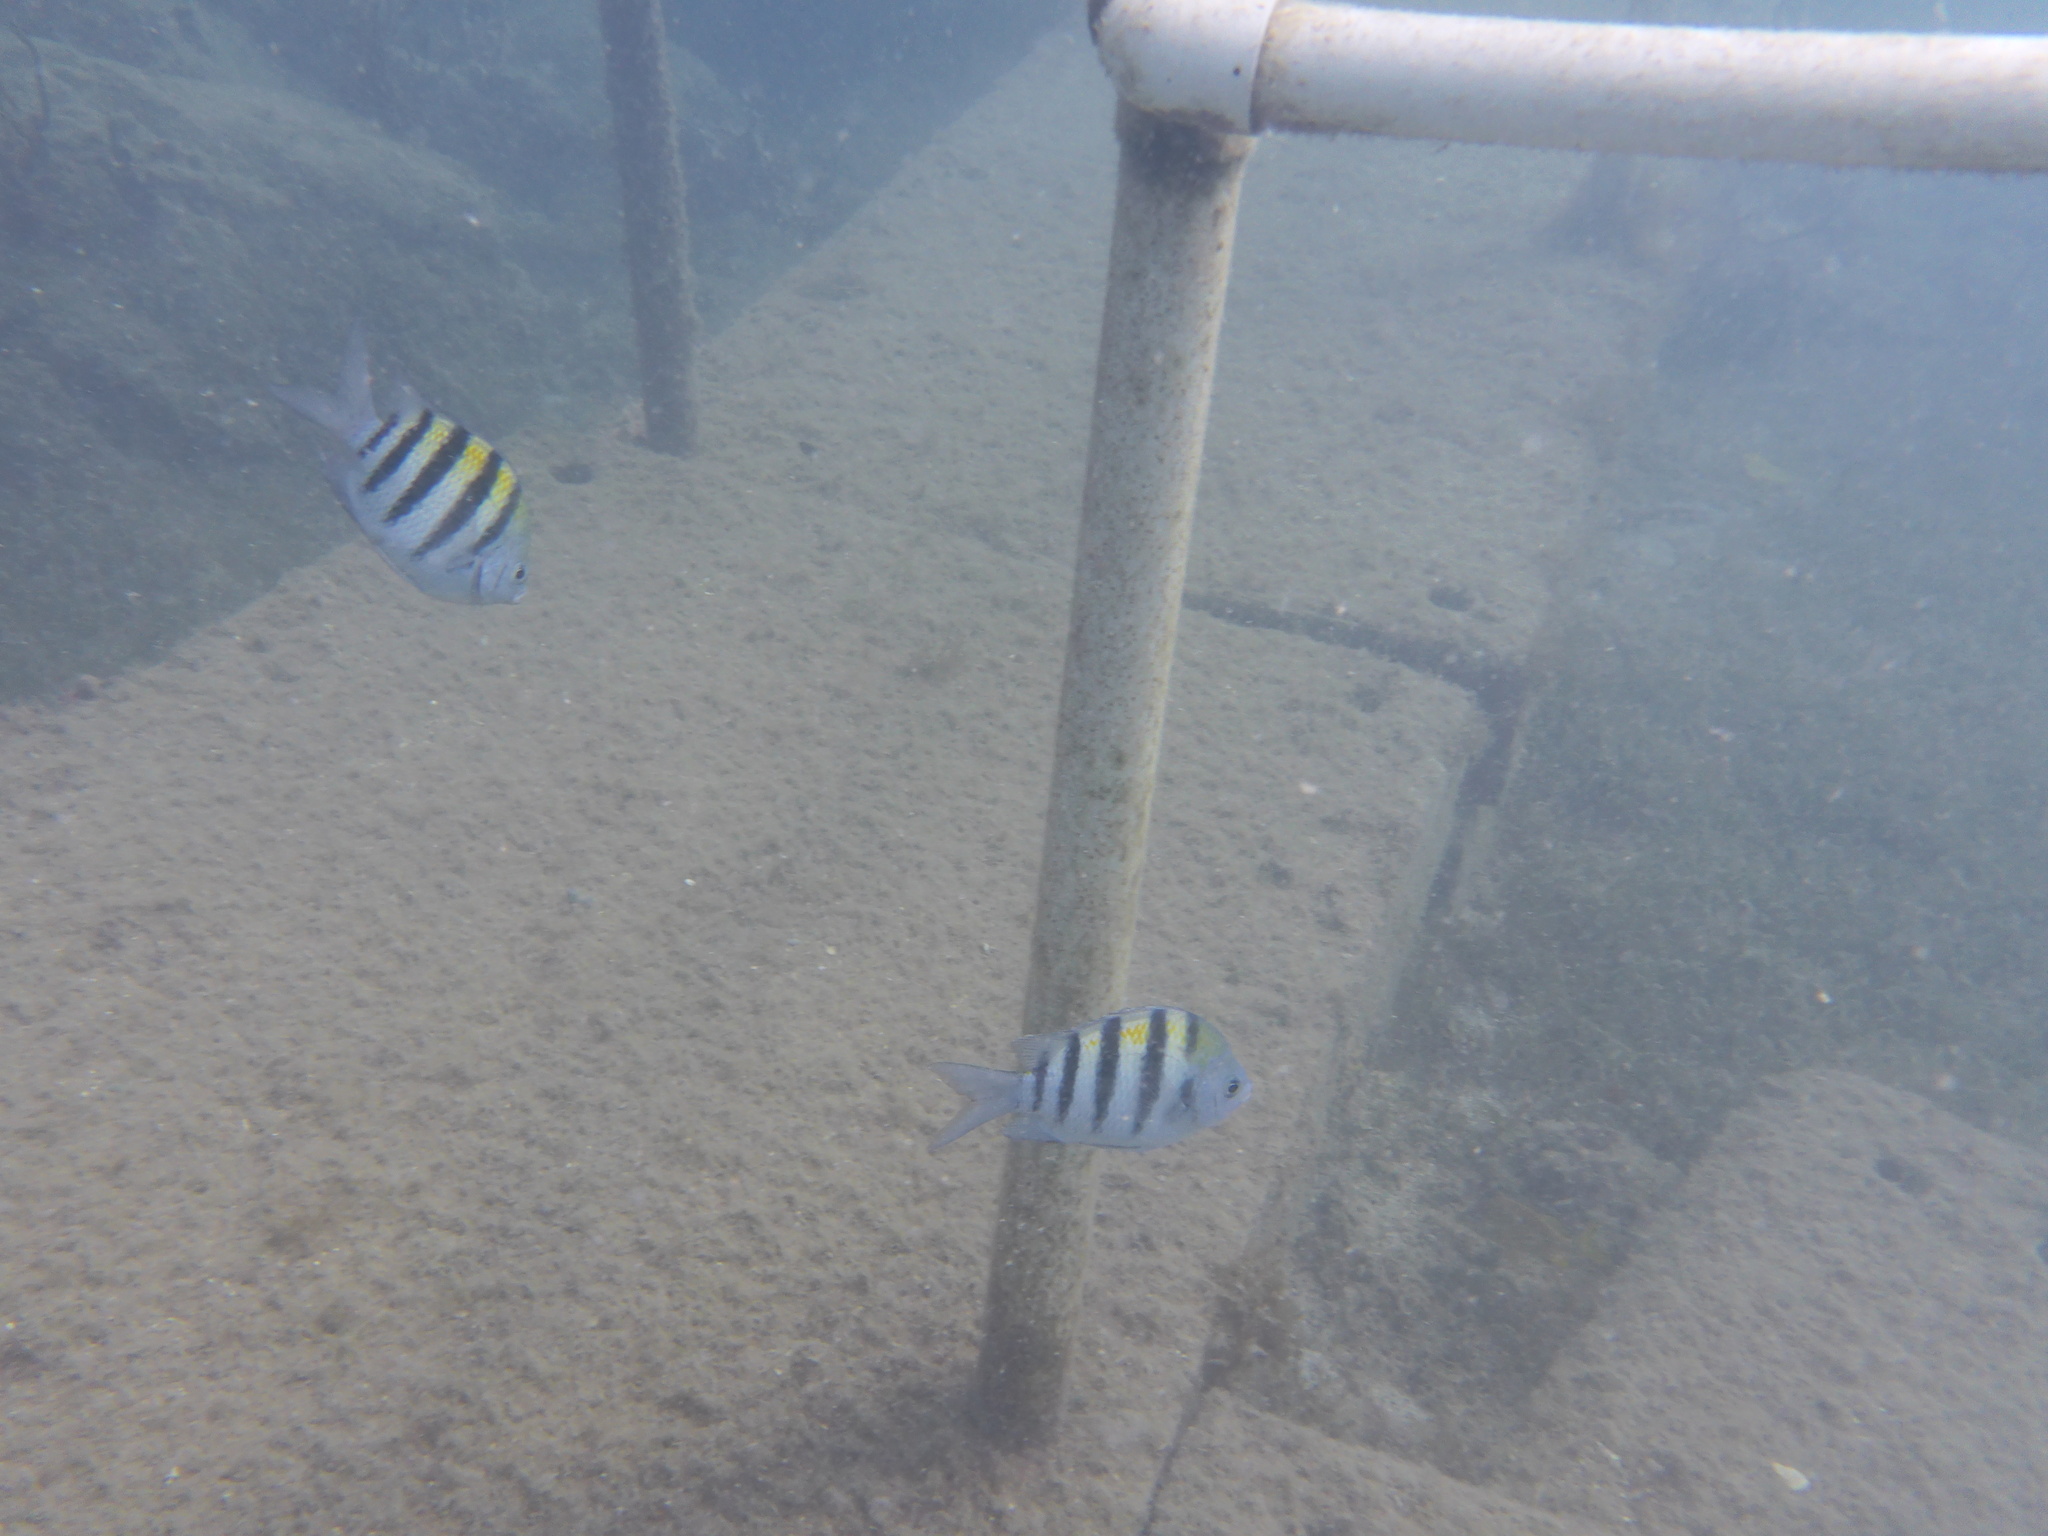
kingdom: Animalia
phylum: Chordata
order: Perciformes
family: Pomacentridae
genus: Abudefduf
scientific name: Abudefduf saxatilis
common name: Sergeant major
